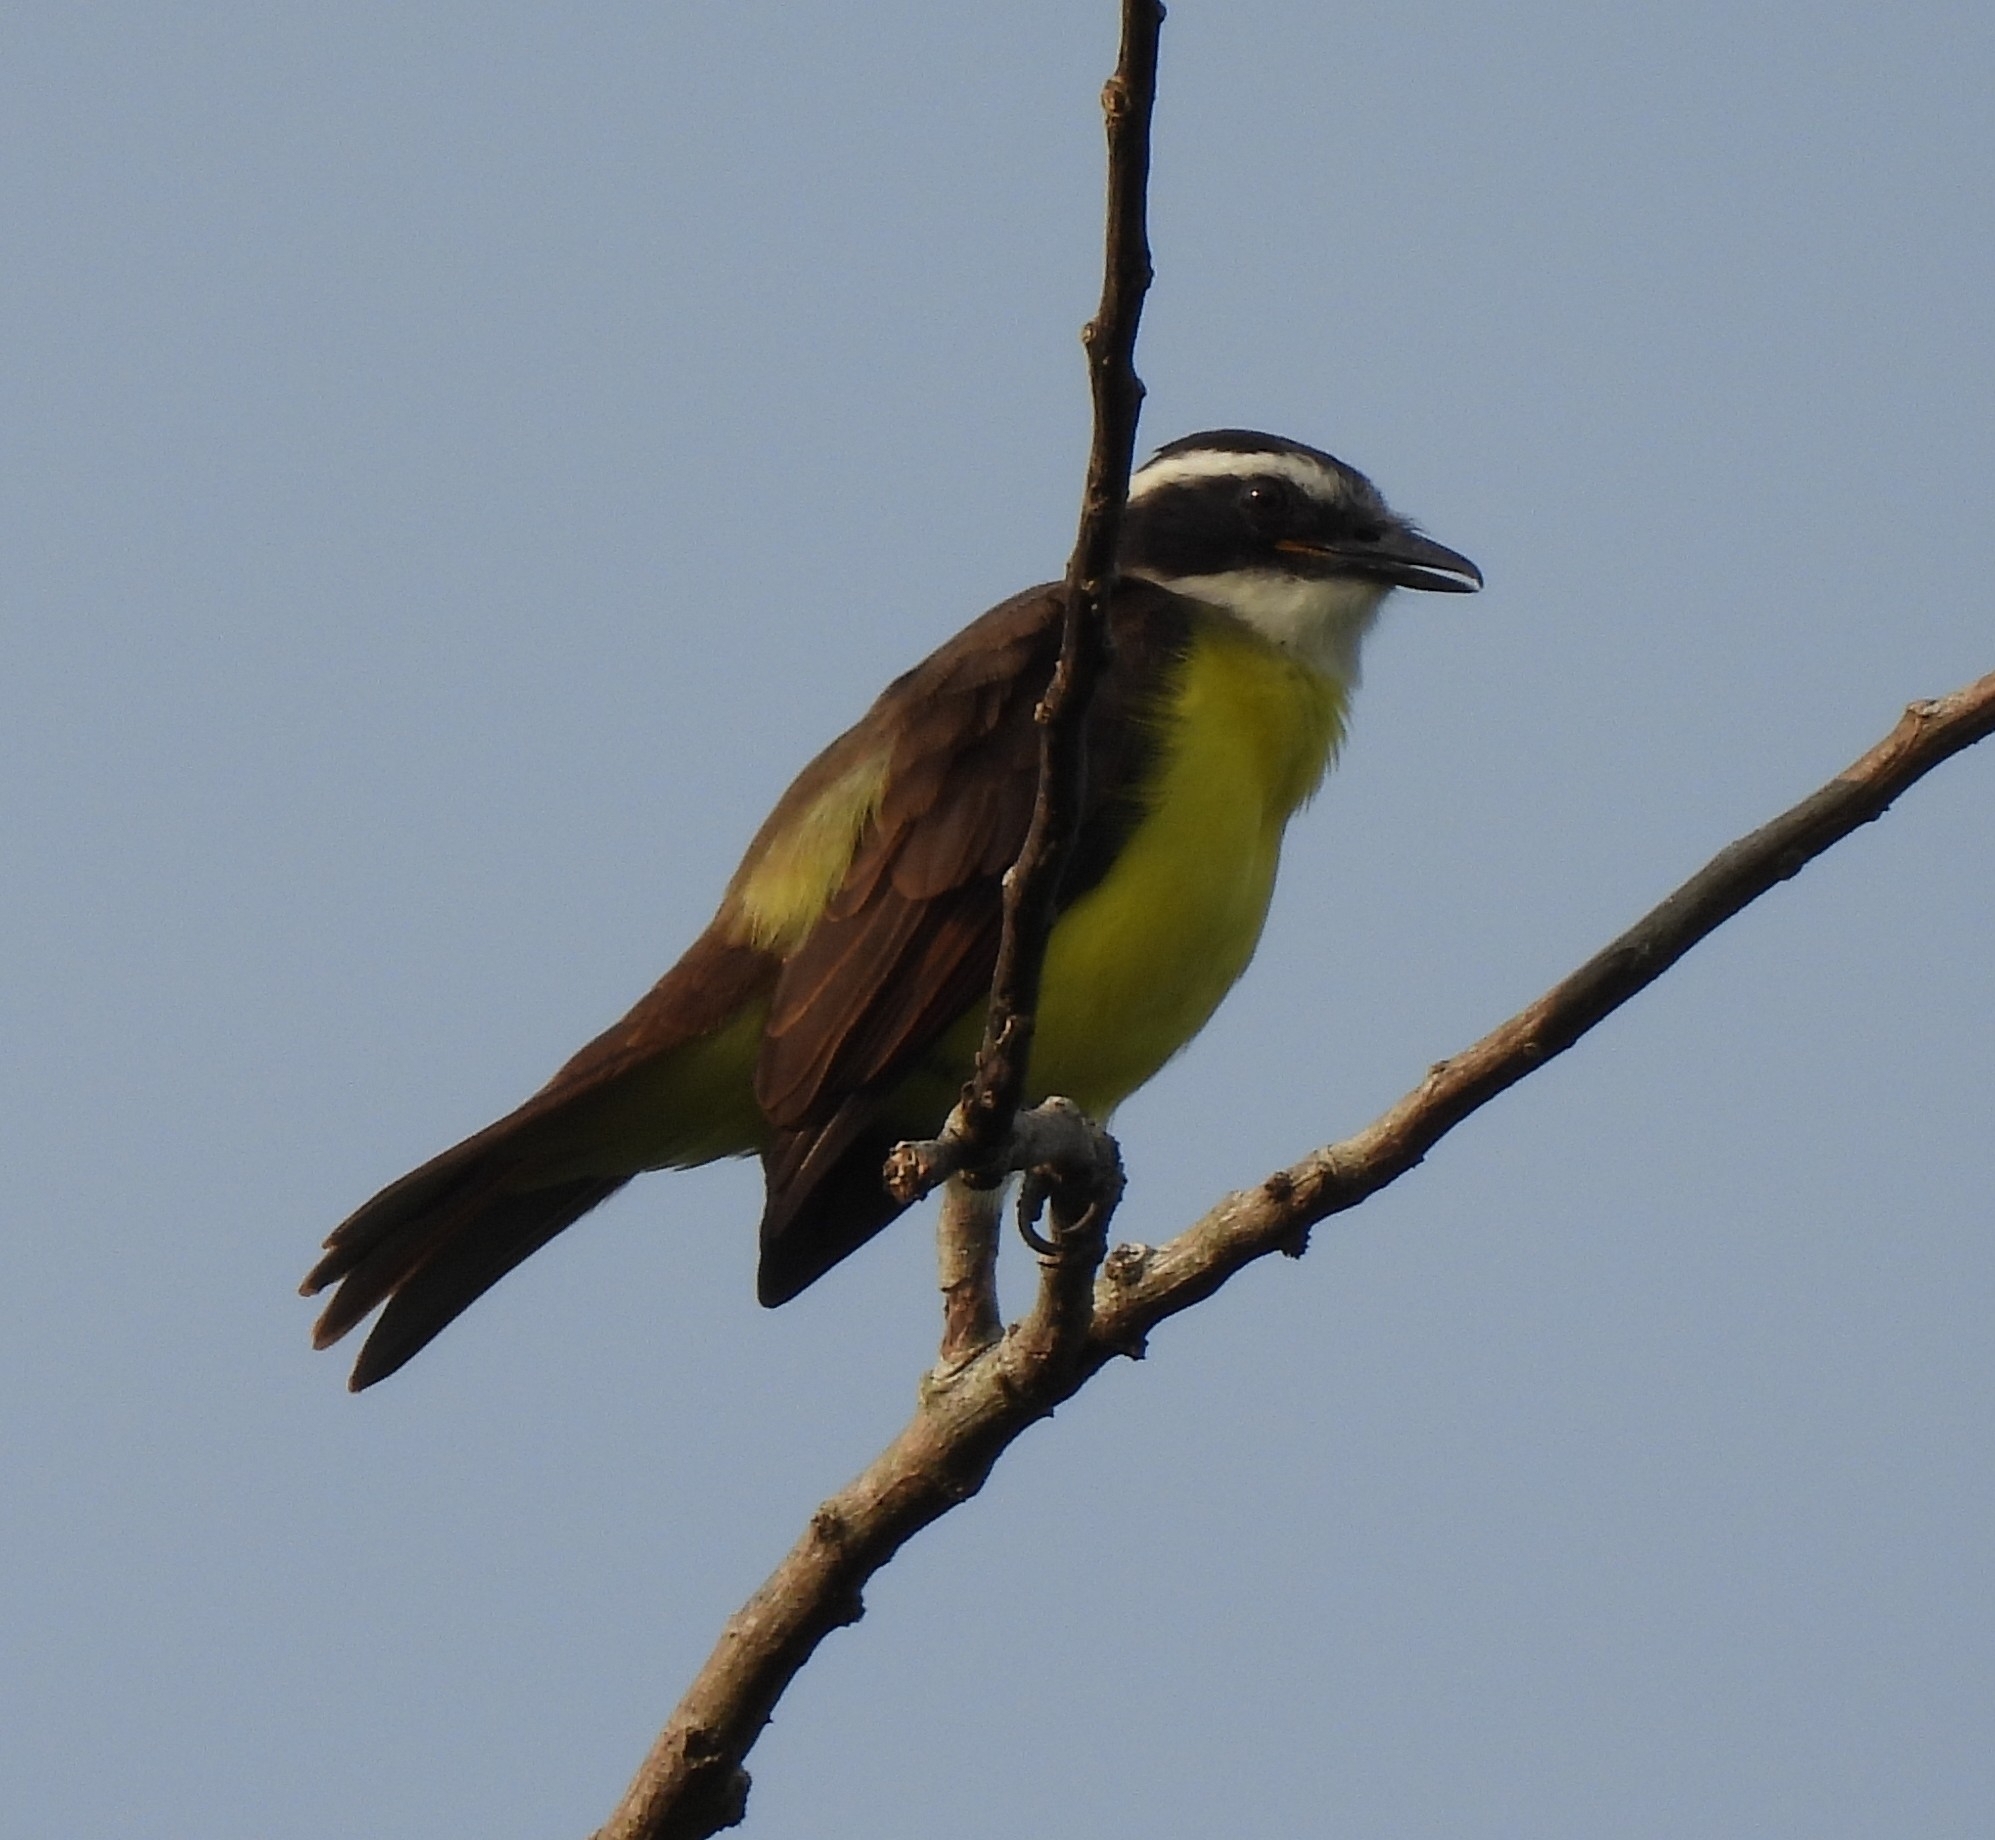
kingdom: Animalia
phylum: Chordata
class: Aves
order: Passeriformes
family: Tyrannidae
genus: Myiozetetes
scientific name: Myiozetetes similis
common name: Social flycatcher
